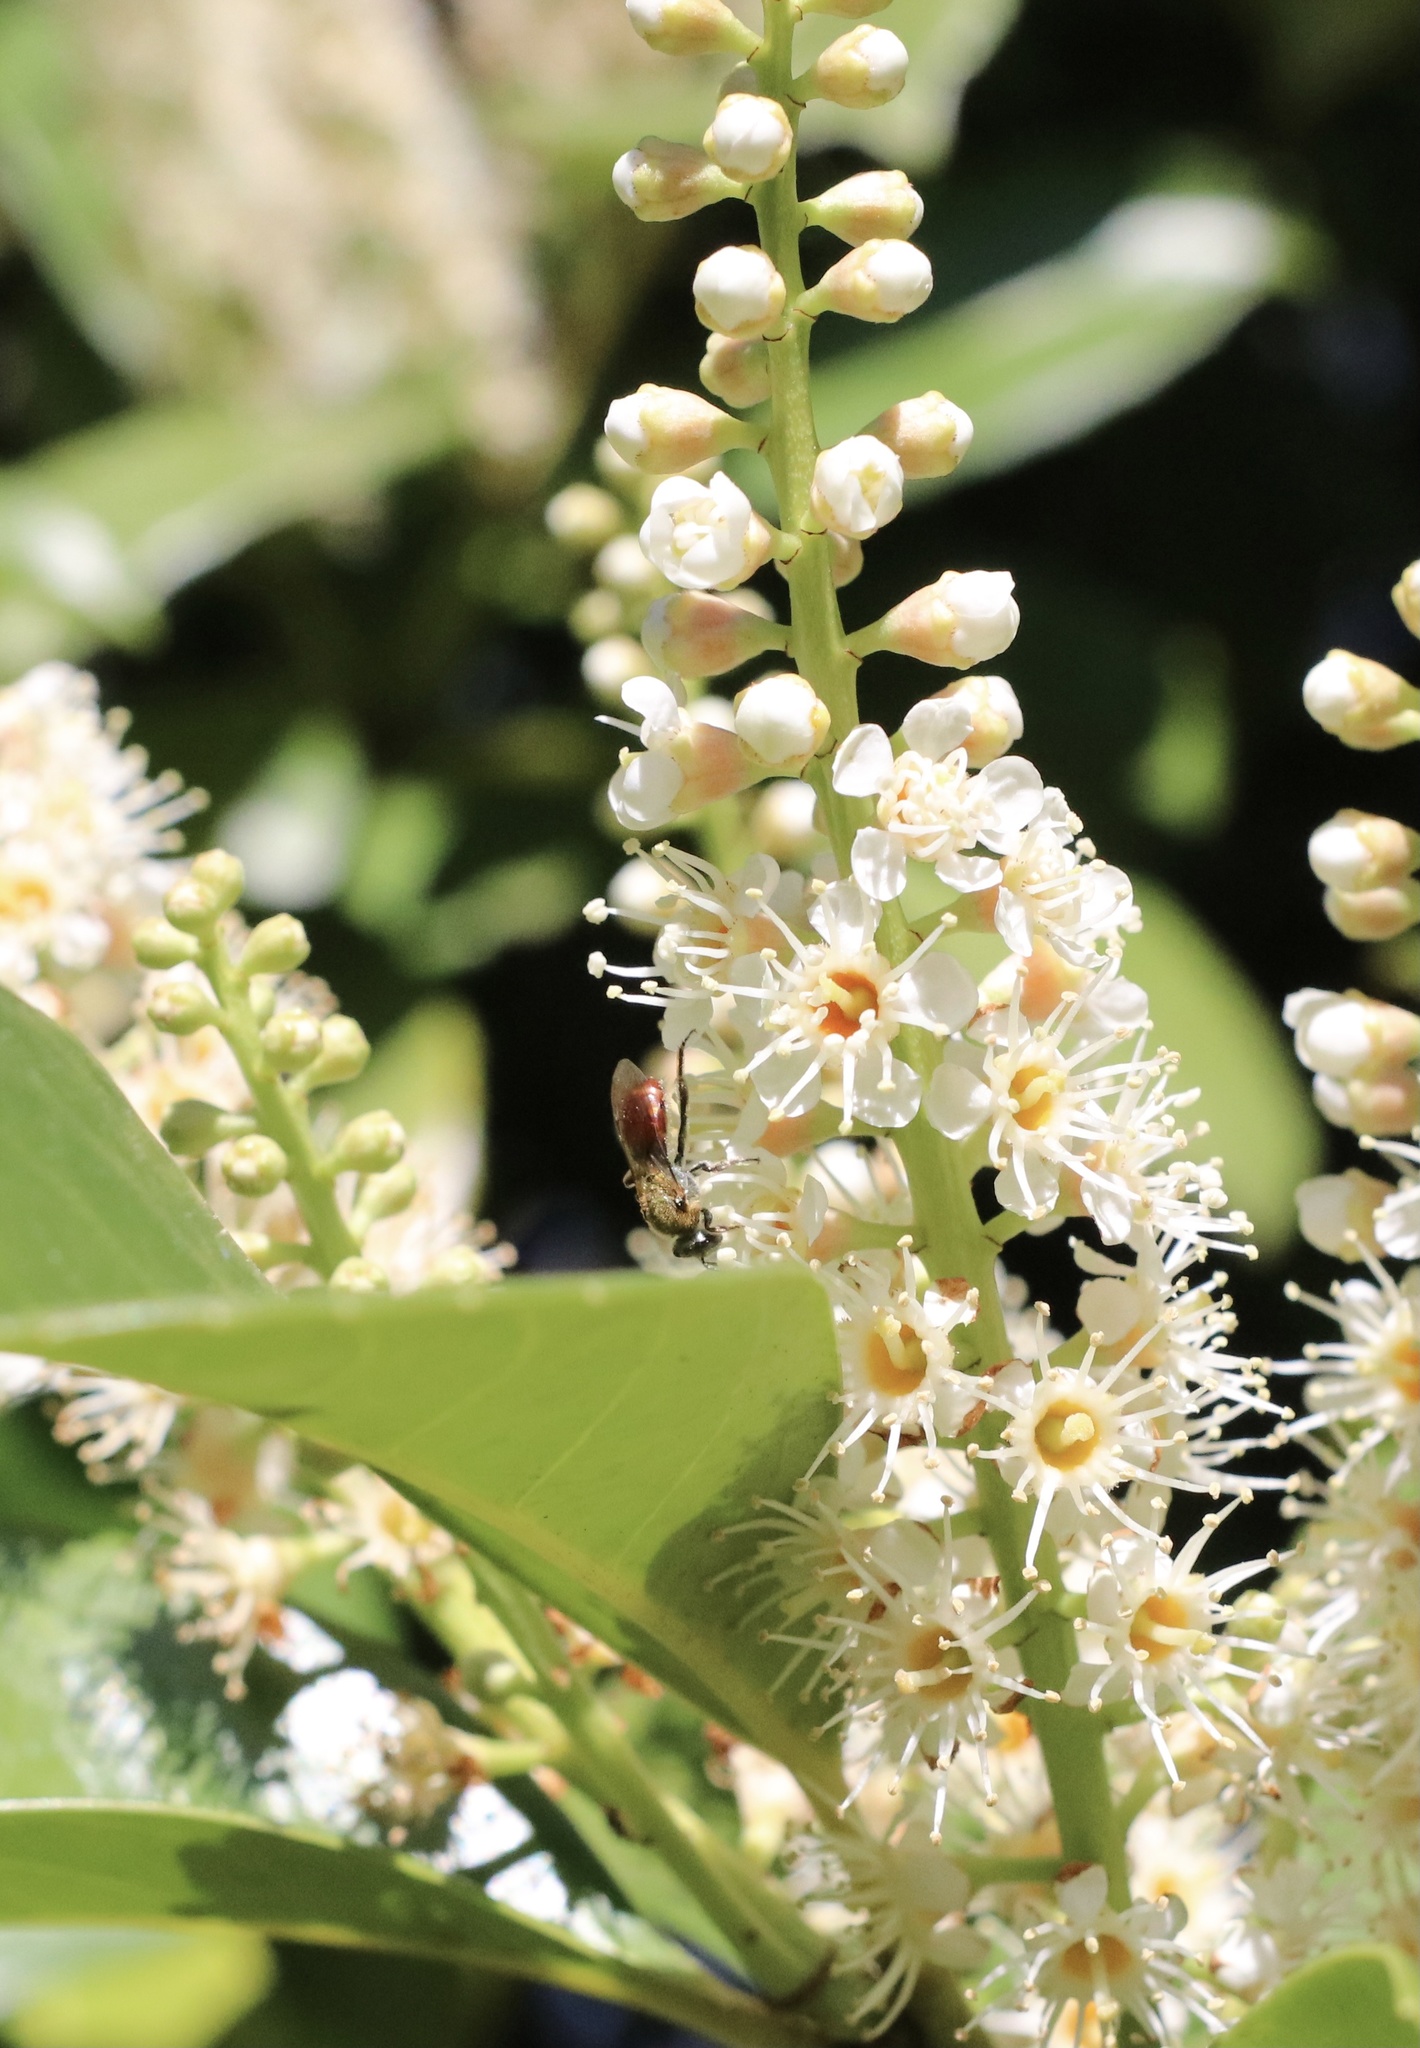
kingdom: Animalia
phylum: Arthropoda
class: Insecta
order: Hymenoptera
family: Halictidae
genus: Corynura
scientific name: Corynura corinogaster
